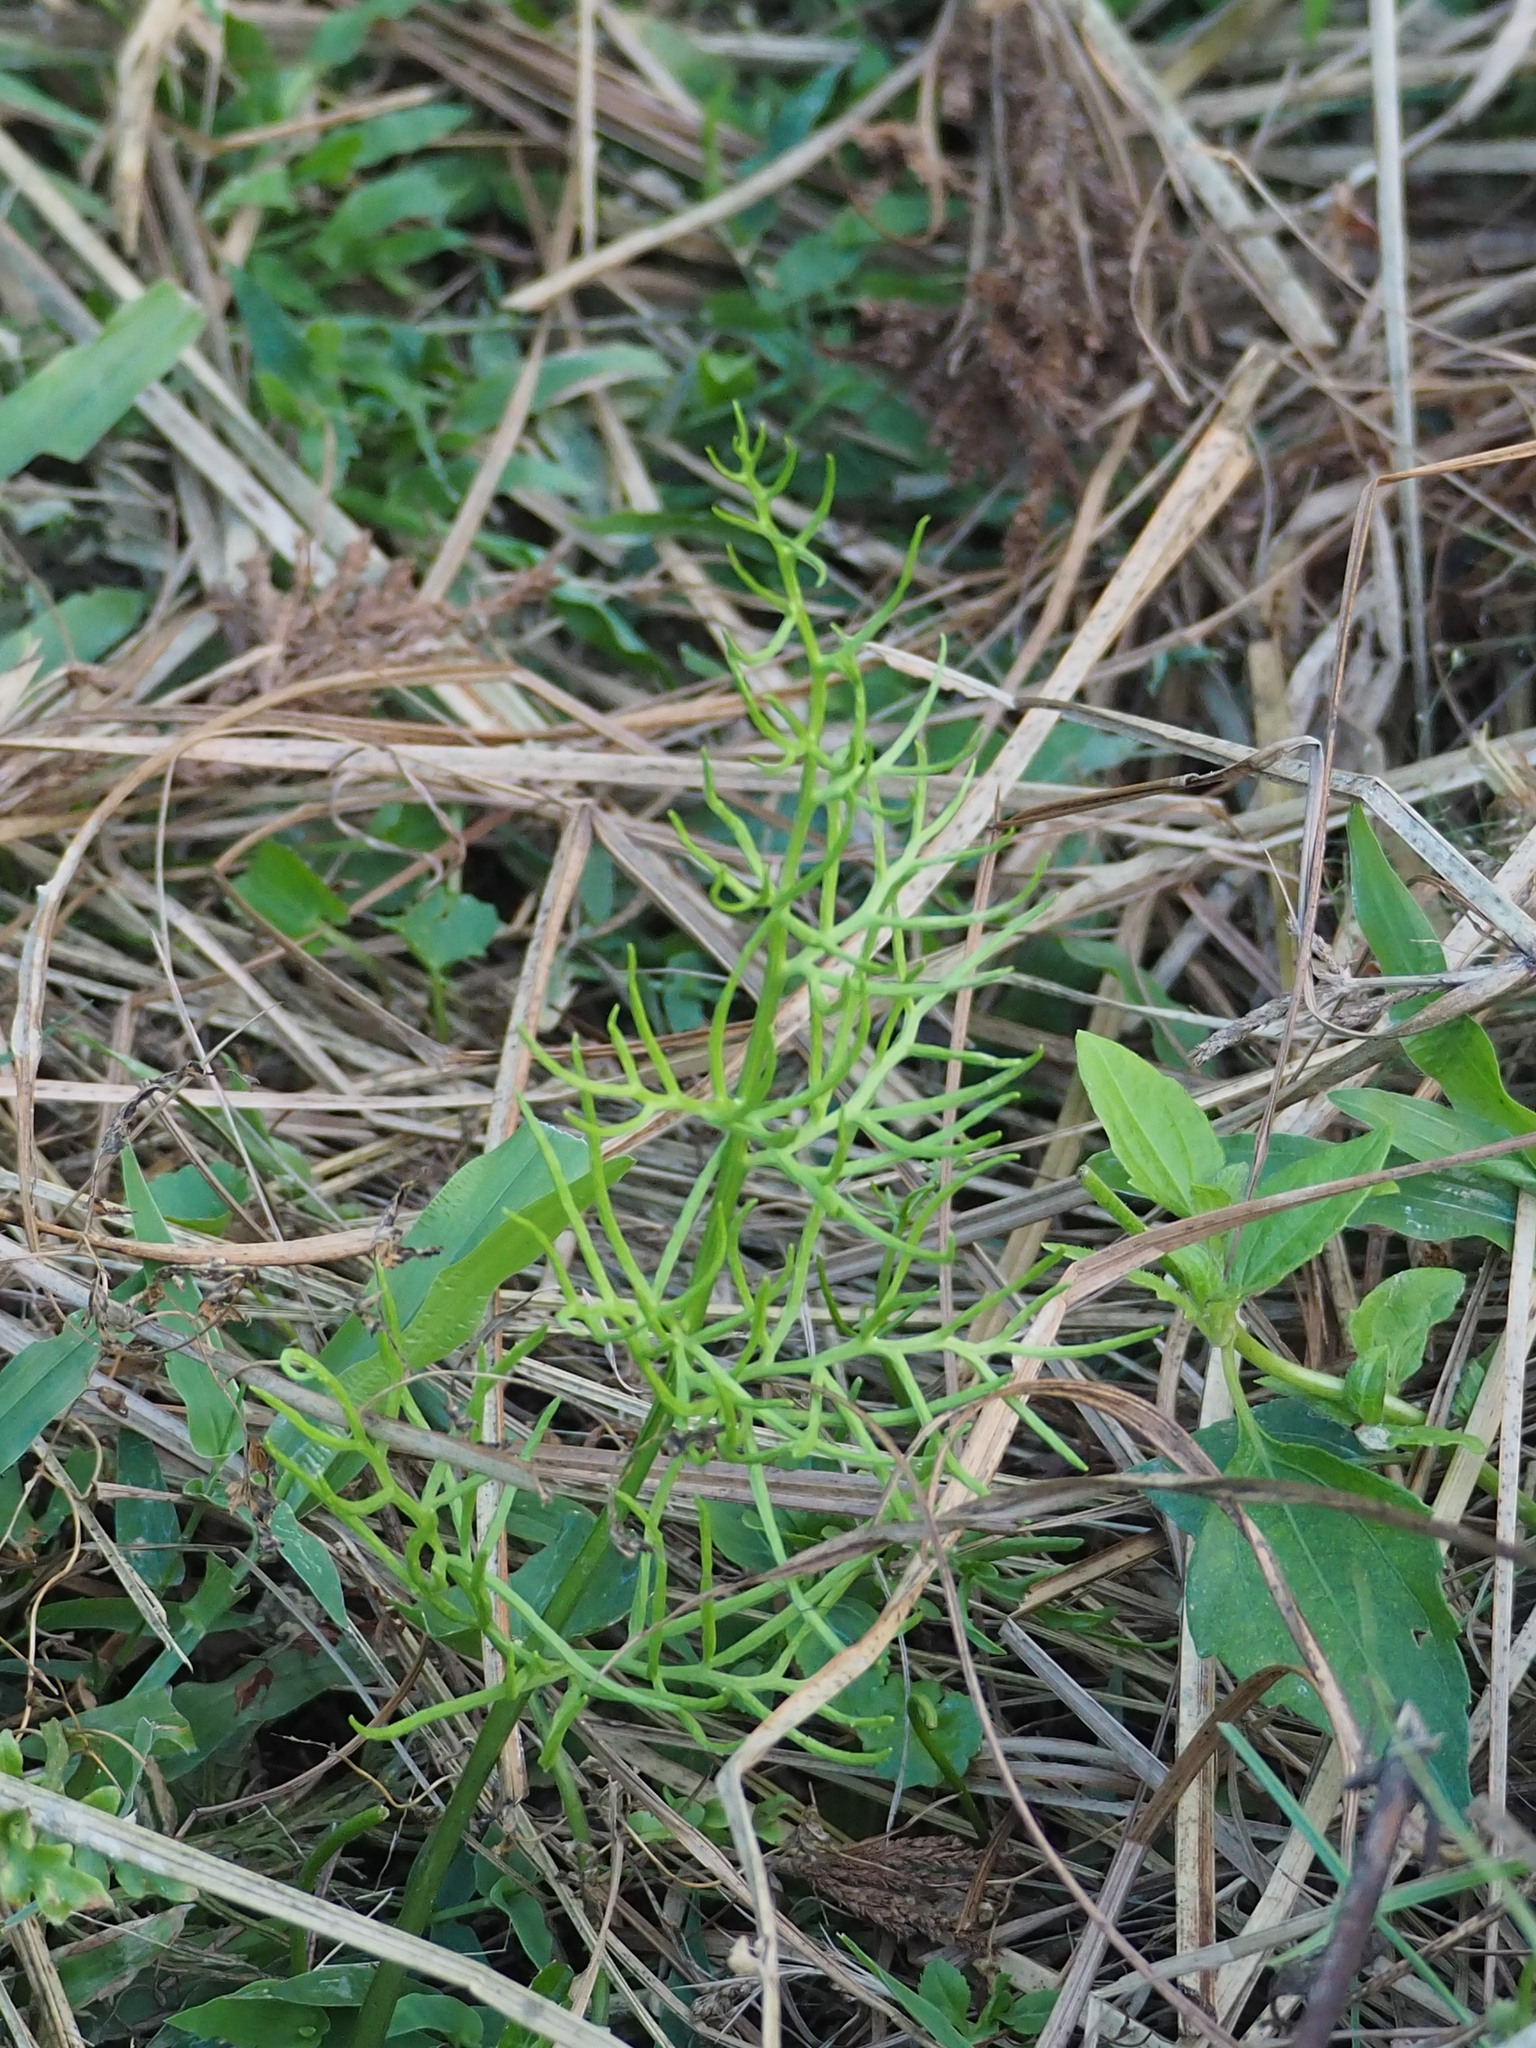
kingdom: Plantae
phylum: Tracheophyta
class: Polypodiopsida
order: Polypodiales
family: Pteridaceae
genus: Ceratopteris
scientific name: Ceratopteris thalictroides
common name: Water fern
